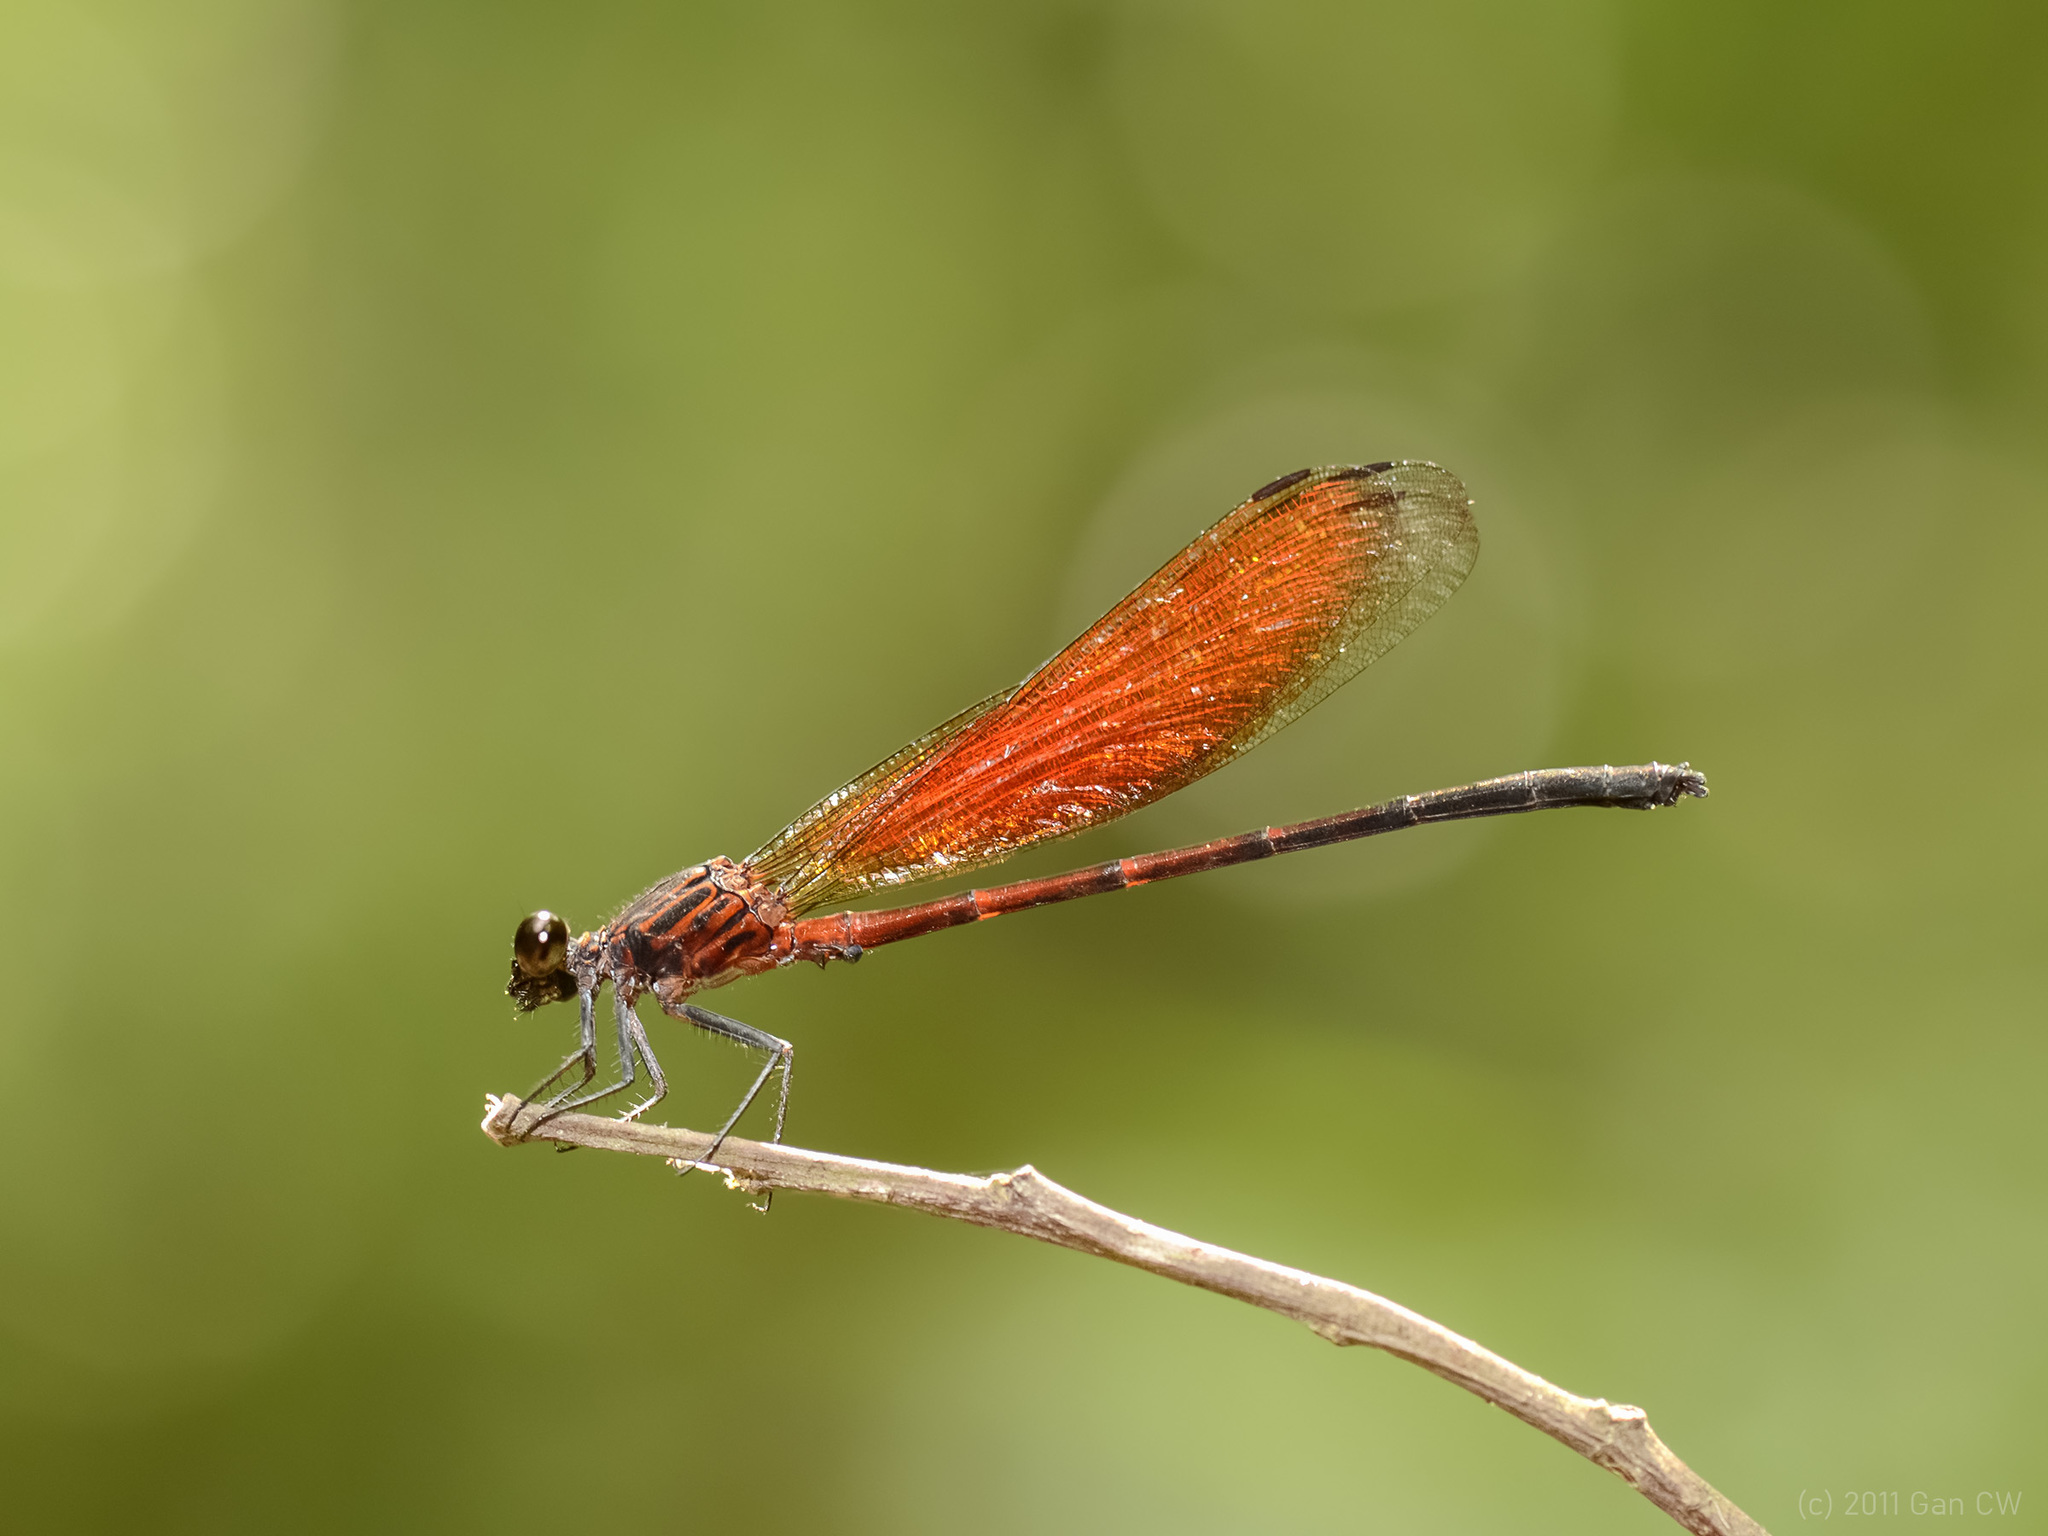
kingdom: Animalia
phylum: Arthropoda
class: Insecta
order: Odonata
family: Euphaeidae
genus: Euphaea
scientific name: Euphaea ochracea
